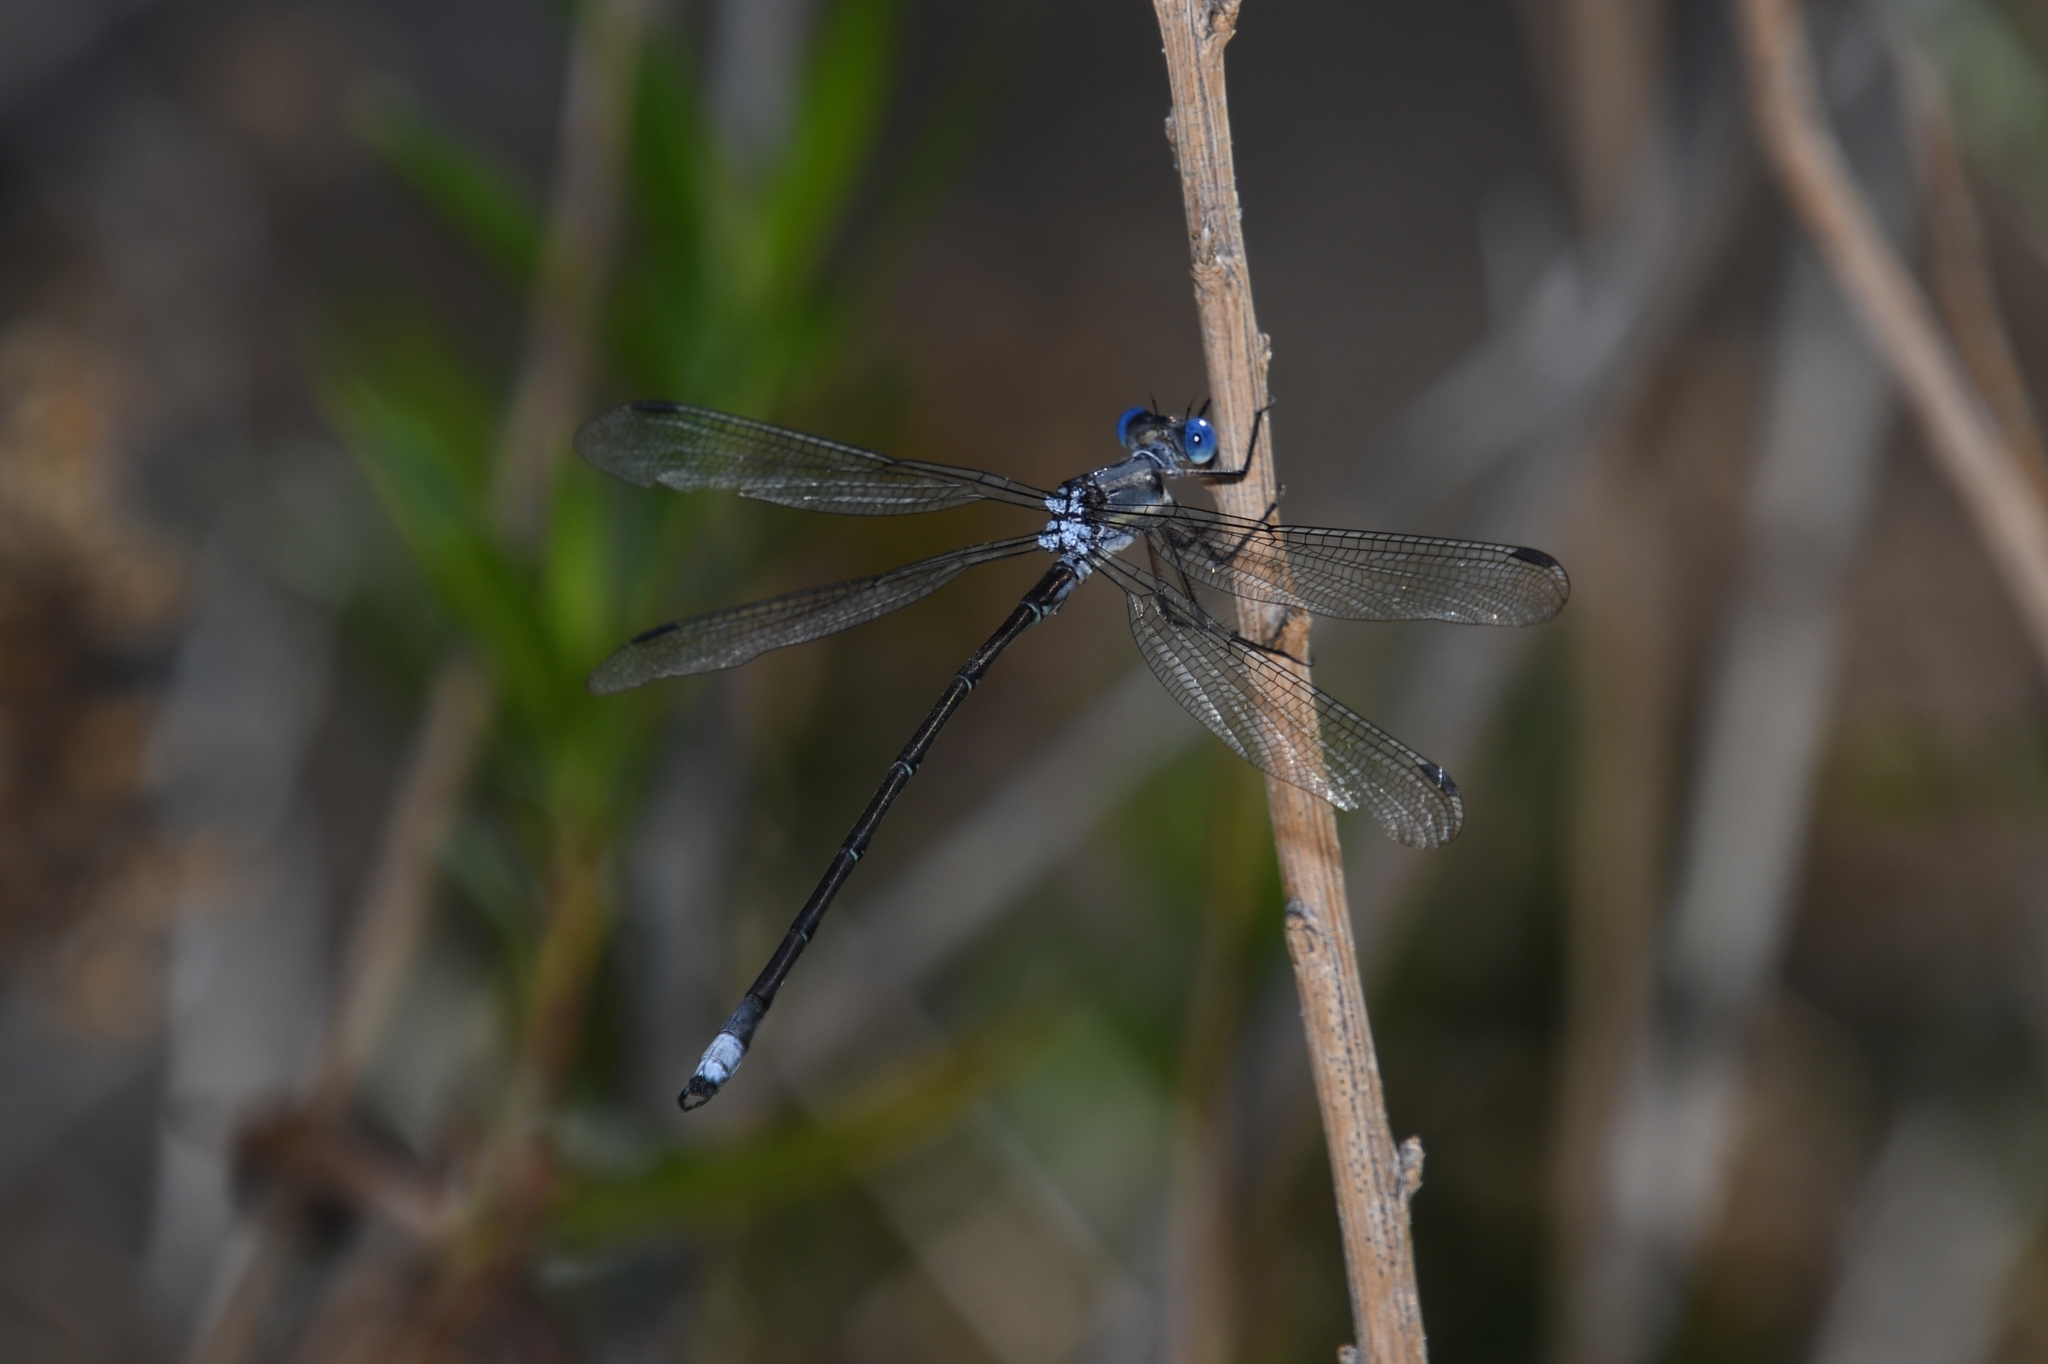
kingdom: Animalia
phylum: Arthropoda
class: Insecta
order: Odonata
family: Lestidae
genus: Archilestes
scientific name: Archilestes grandis
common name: Great spreadwing
